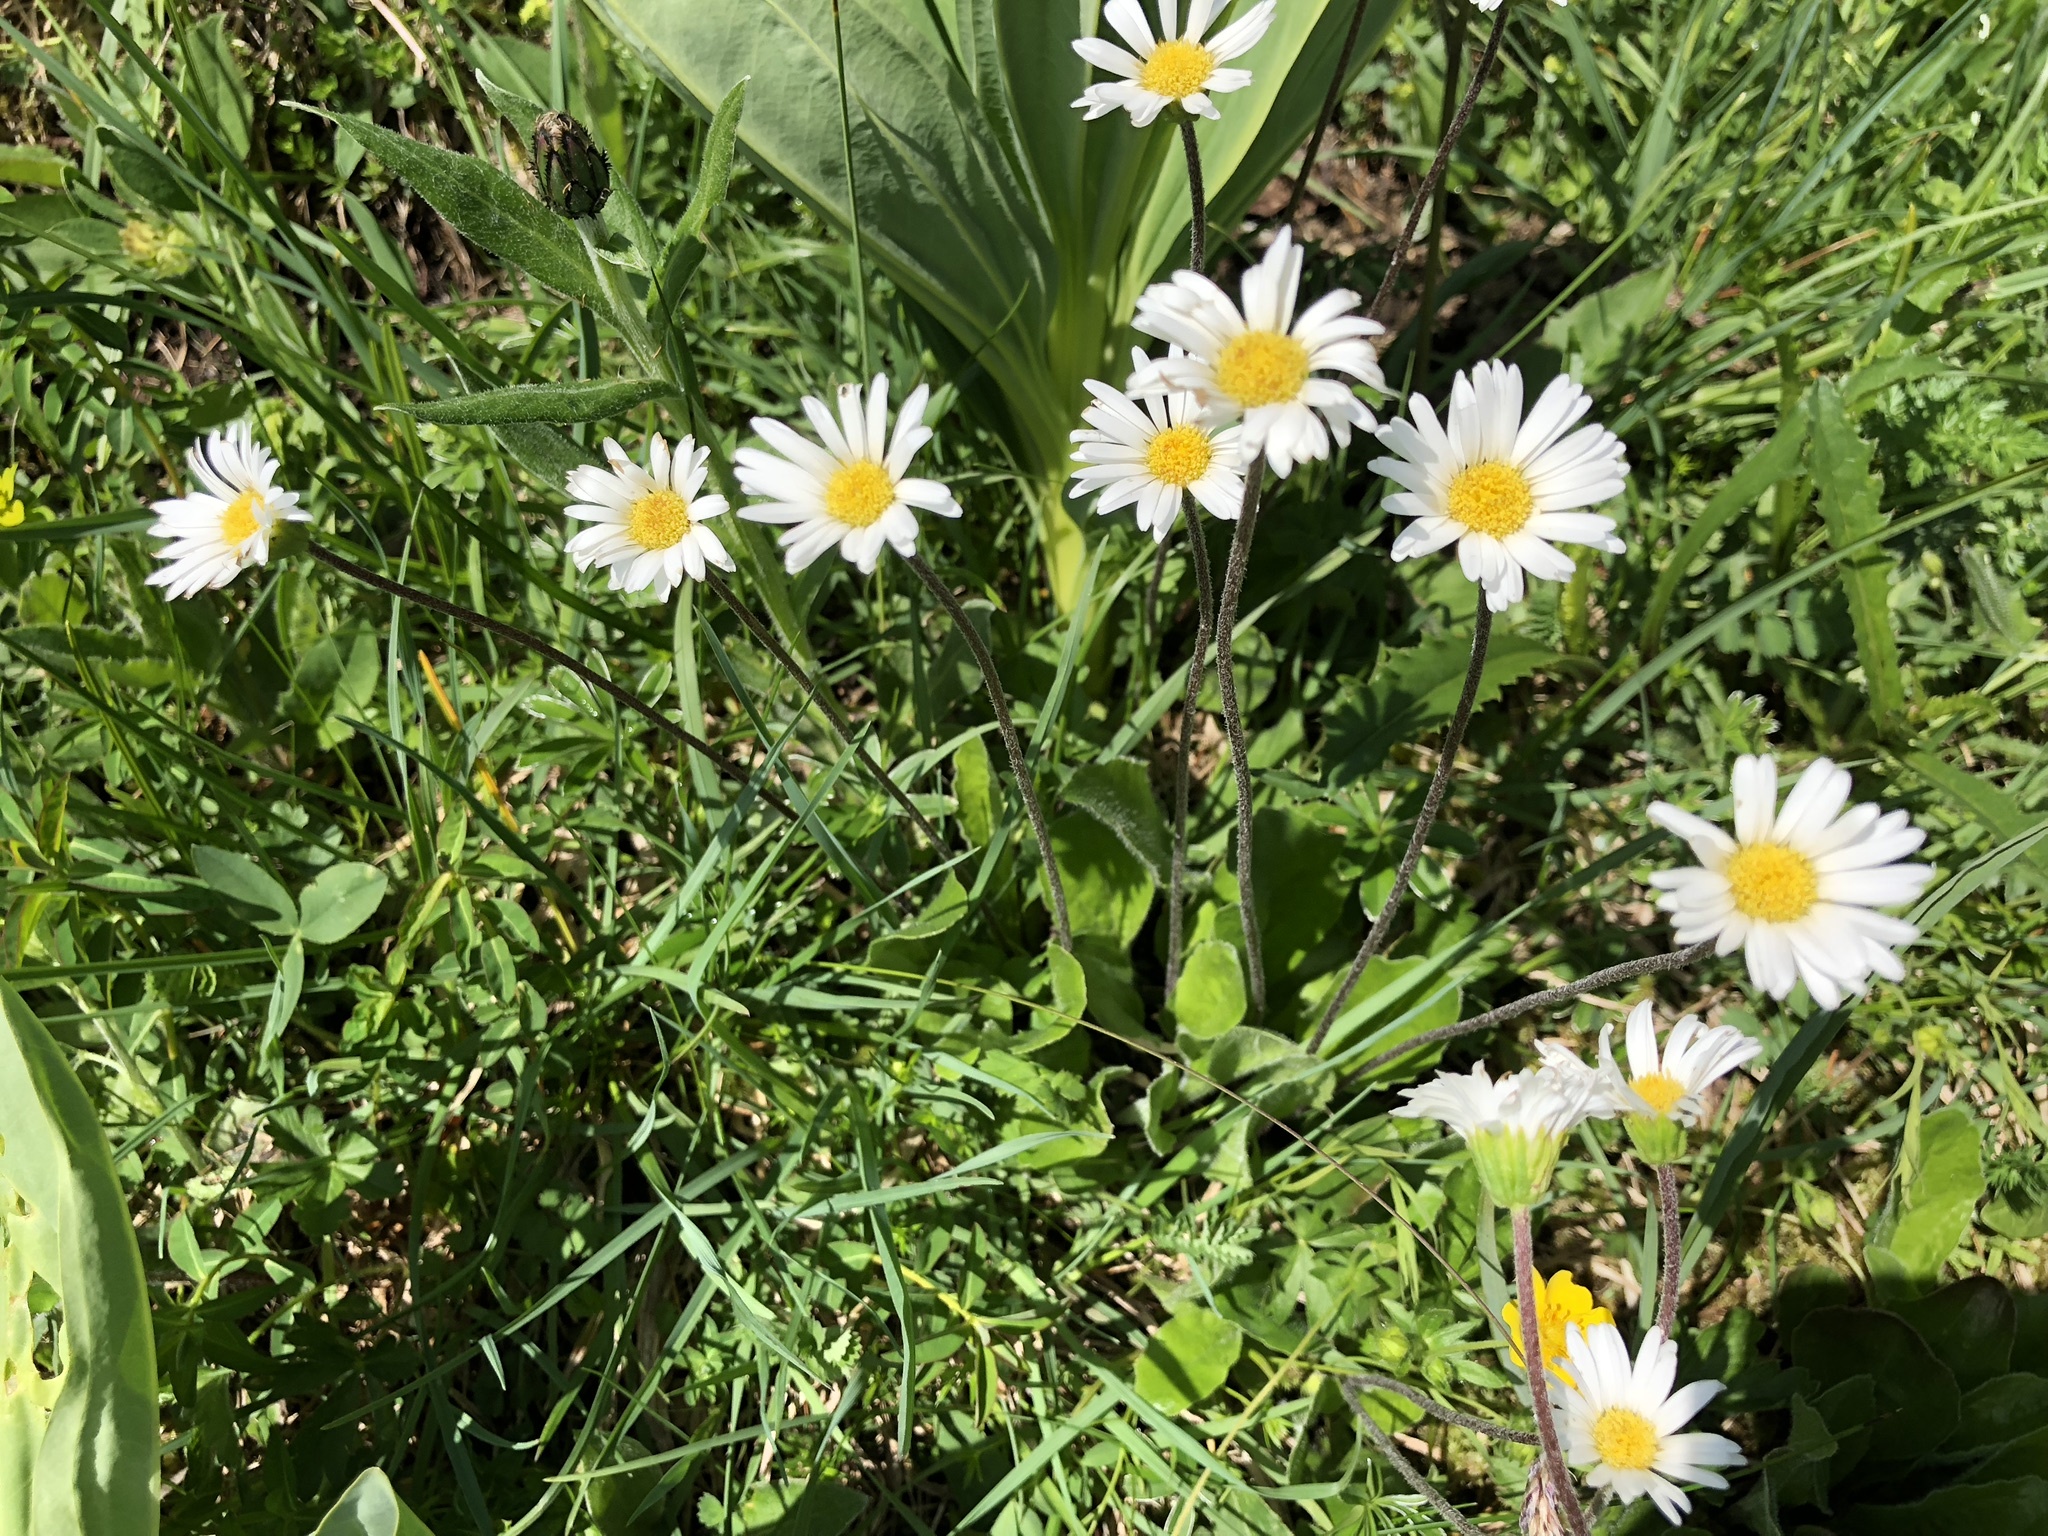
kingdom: Plantae
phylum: Tracheophyta
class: Magnoliopsida
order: Asterales
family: Asteraceae
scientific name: Asteraceae
